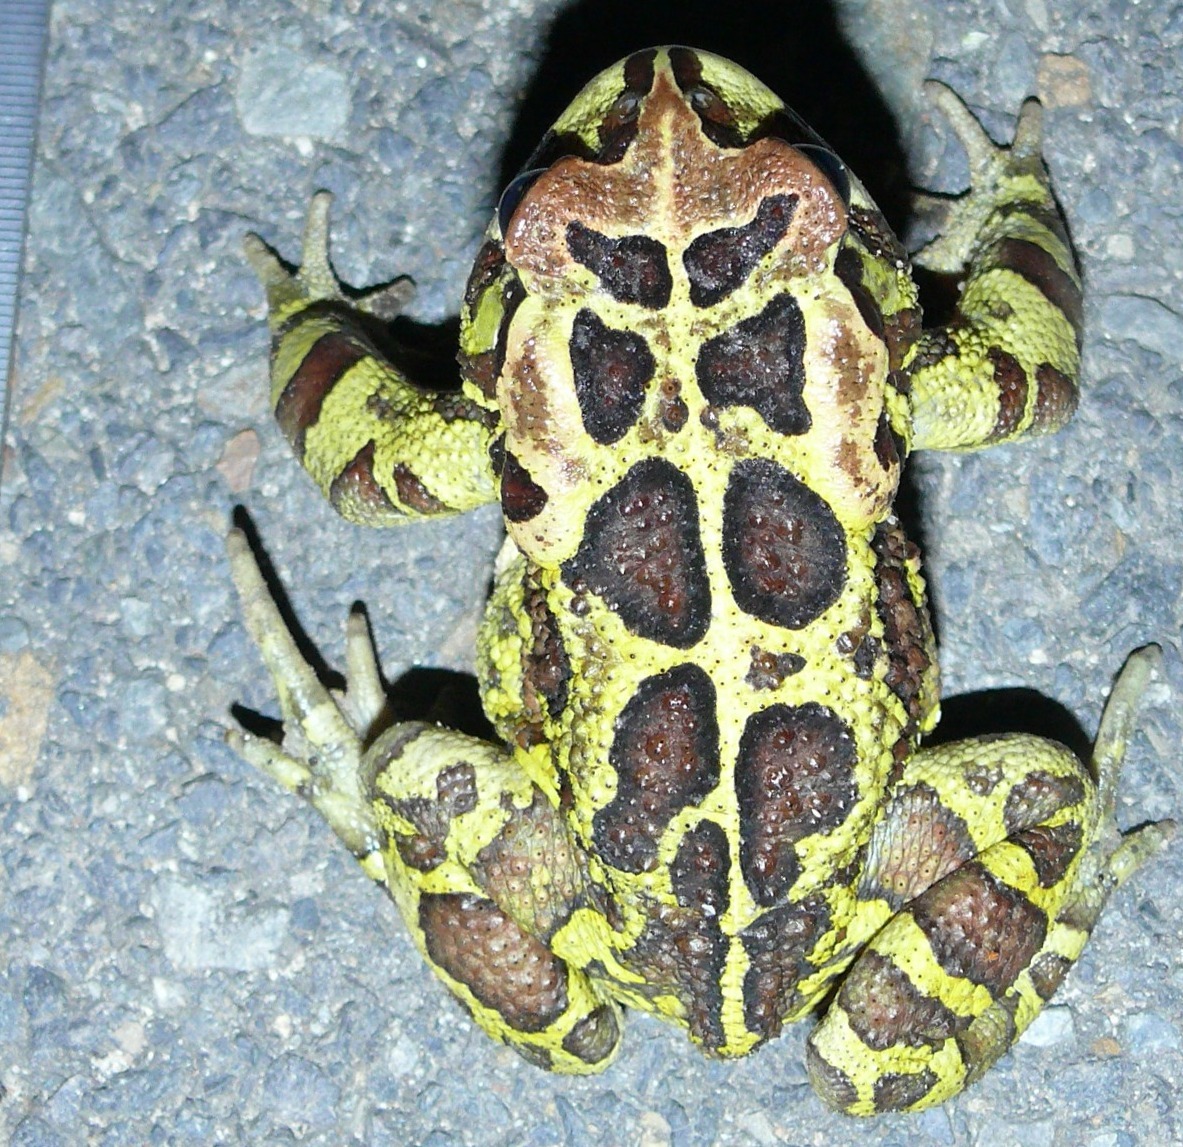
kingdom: Animalia
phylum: Chordata
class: Amphibia
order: Anura
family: Bufonidae
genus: Sclerophrys
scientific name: Sclerophrys pantherina
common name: Panther toad
